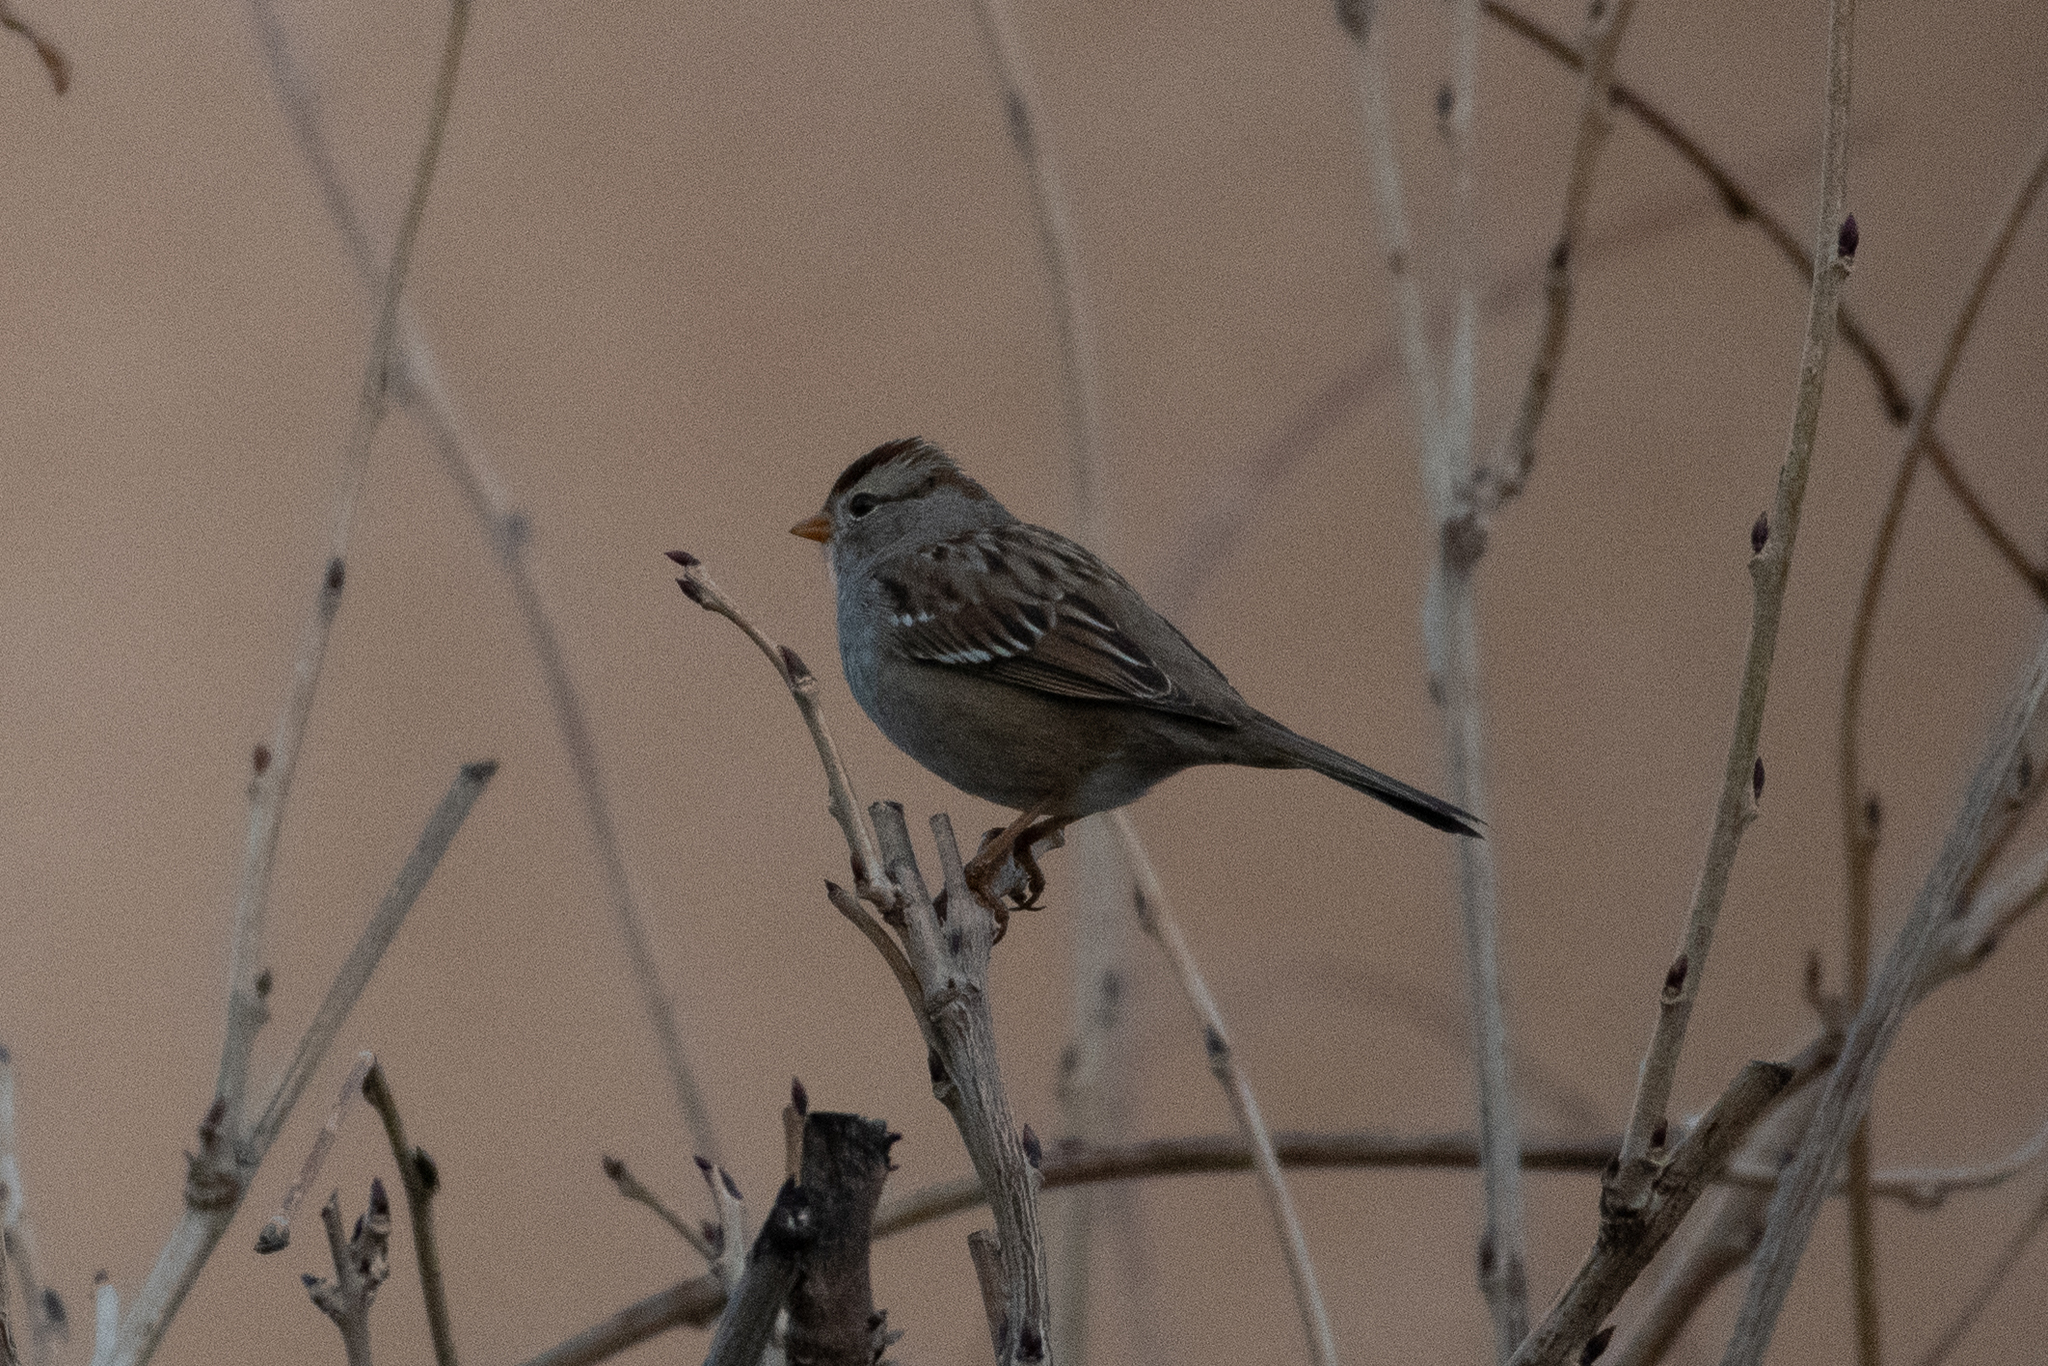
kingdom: Animalia
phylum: Chordata
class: Aves
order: Passeriformes
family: Passerellidae
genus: Zonotrichia
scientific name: Zonotrichia leucophrys
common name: White-crowned sparrow
